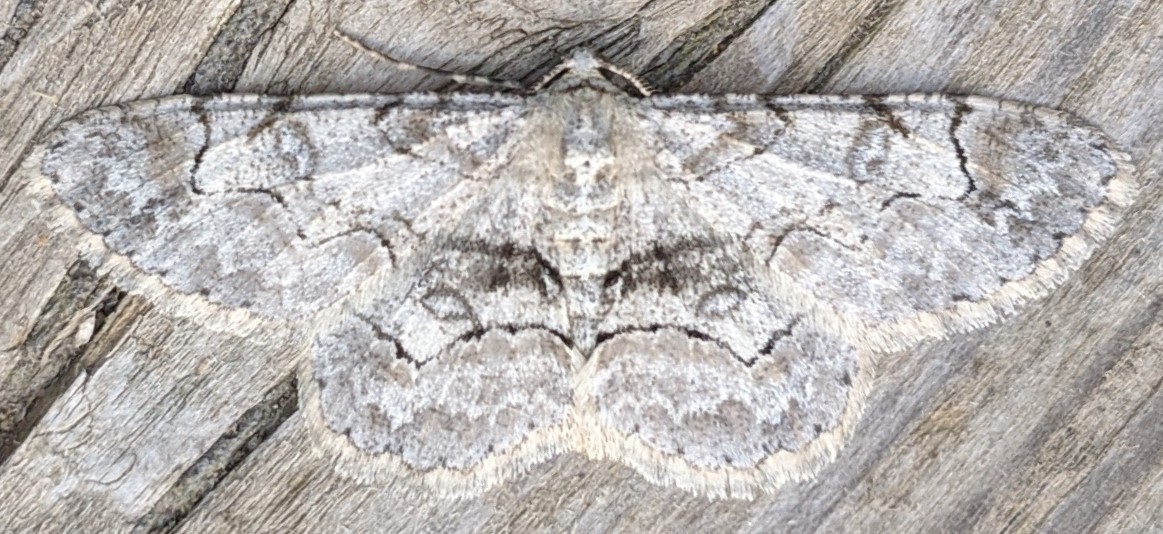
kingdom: Animalia
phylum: Arthropoda
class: Insecta
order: Lepidoptera
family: Geometridae
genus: Iridopsis
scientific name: Iridopsis larvaria
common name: Bent-line gray
